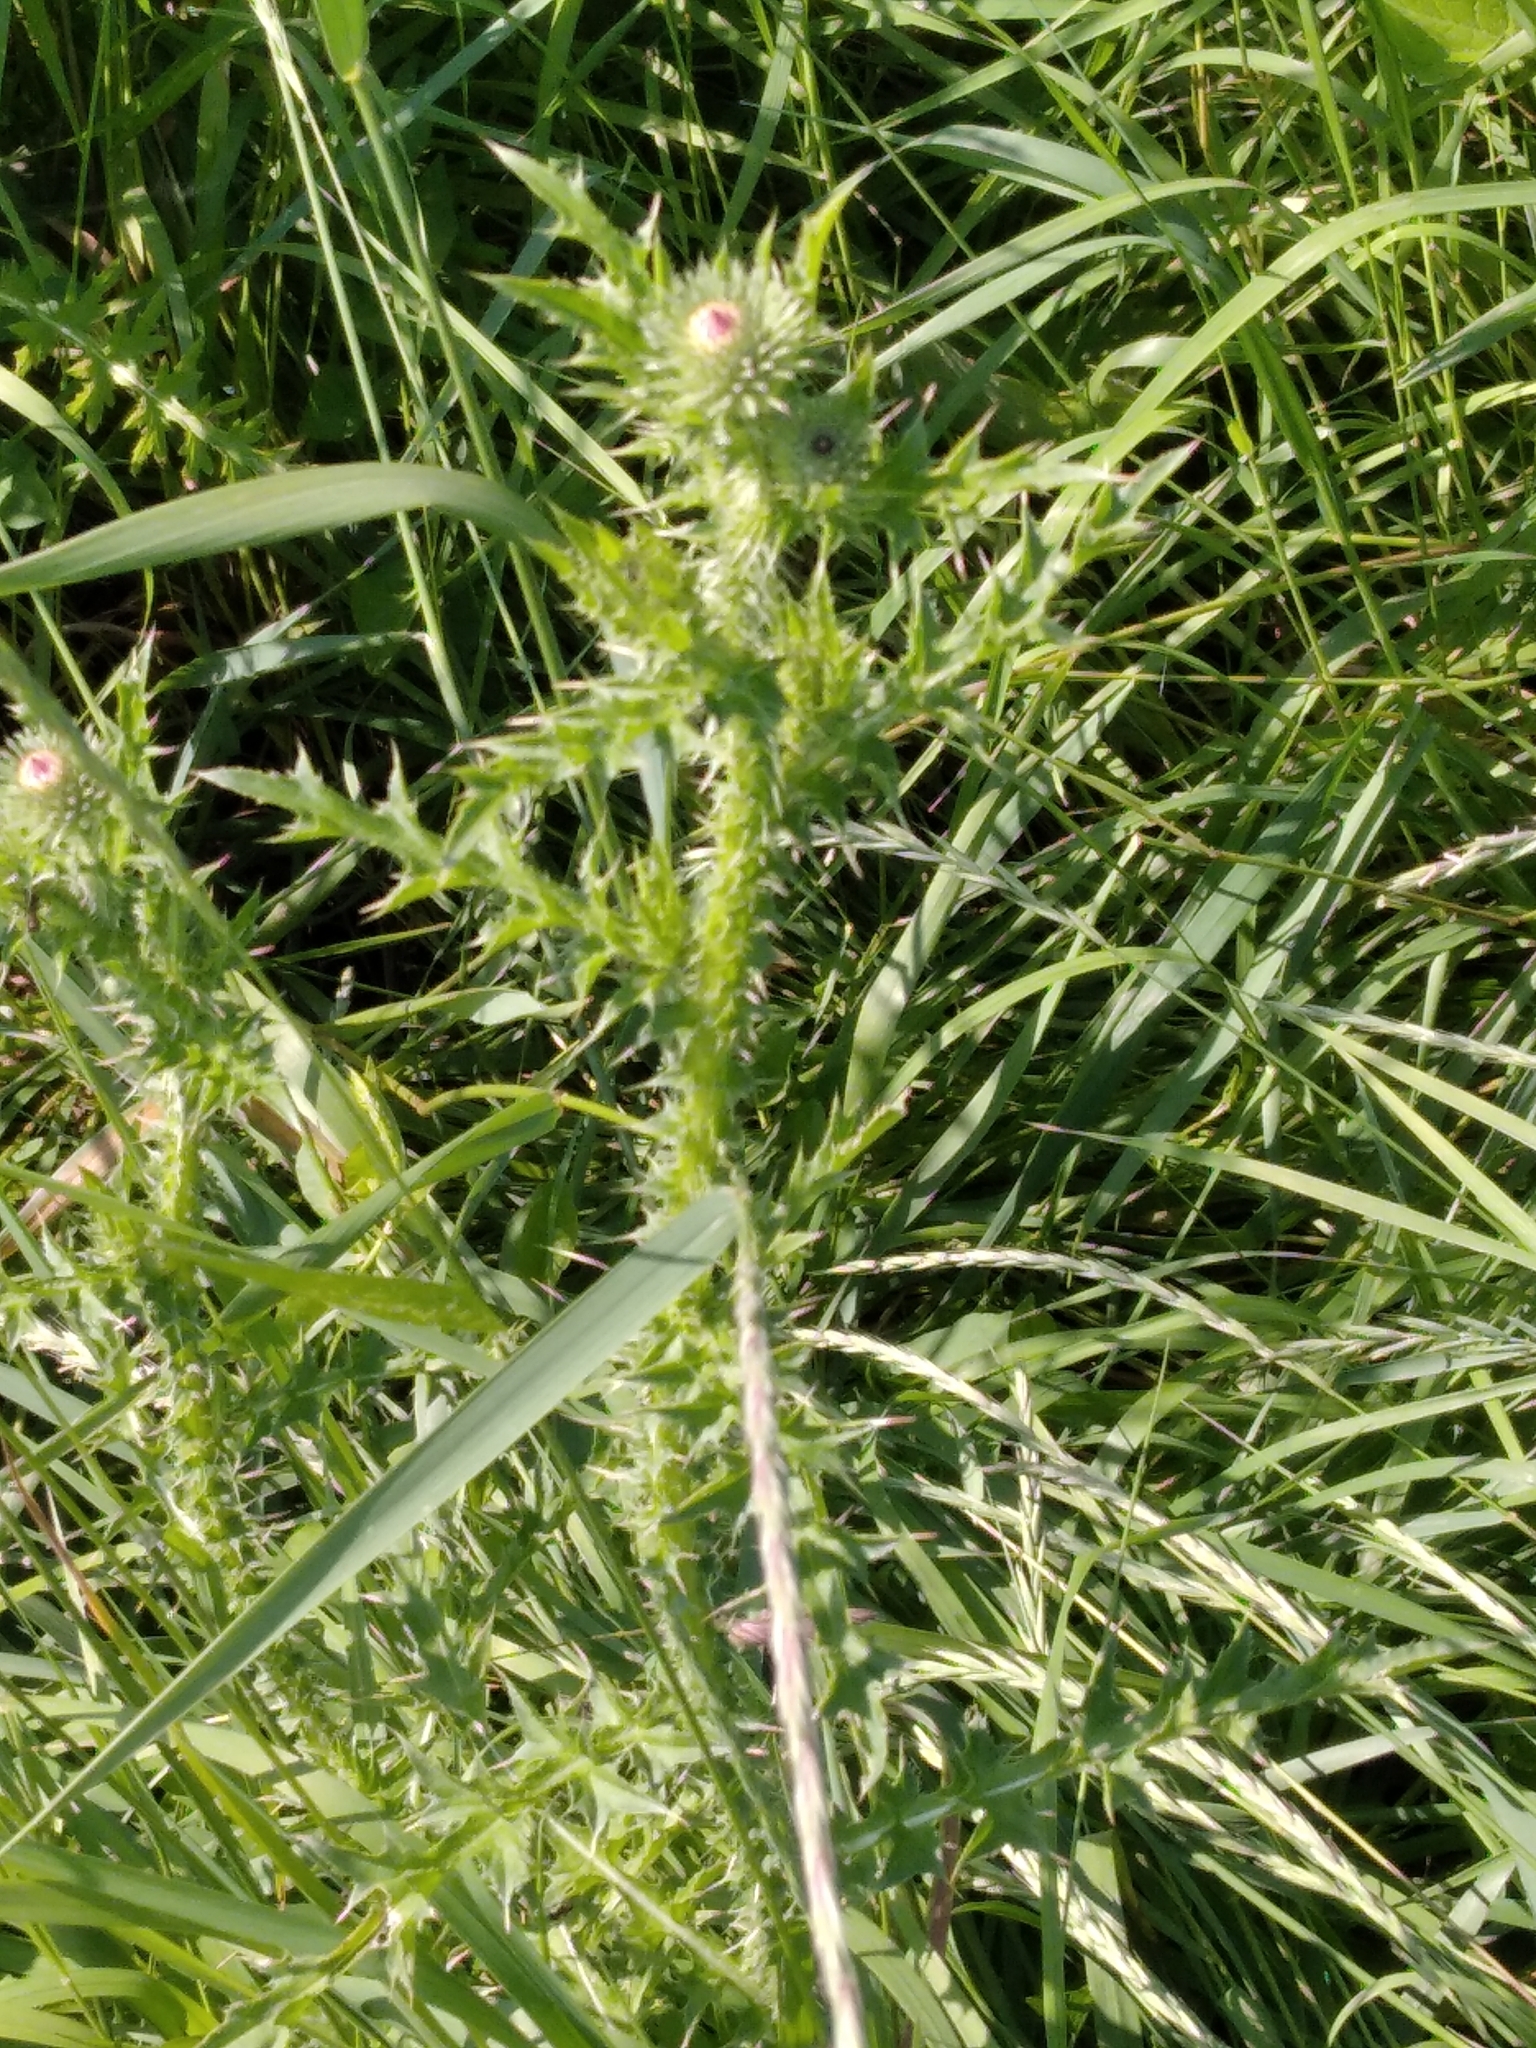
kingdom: Plantae
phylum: Tracheophyta
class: Magnoliopsida
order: Asterales
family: Asteraceae
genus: Carduus
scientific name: Carduus acanthoides
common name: Plumeless thistle
